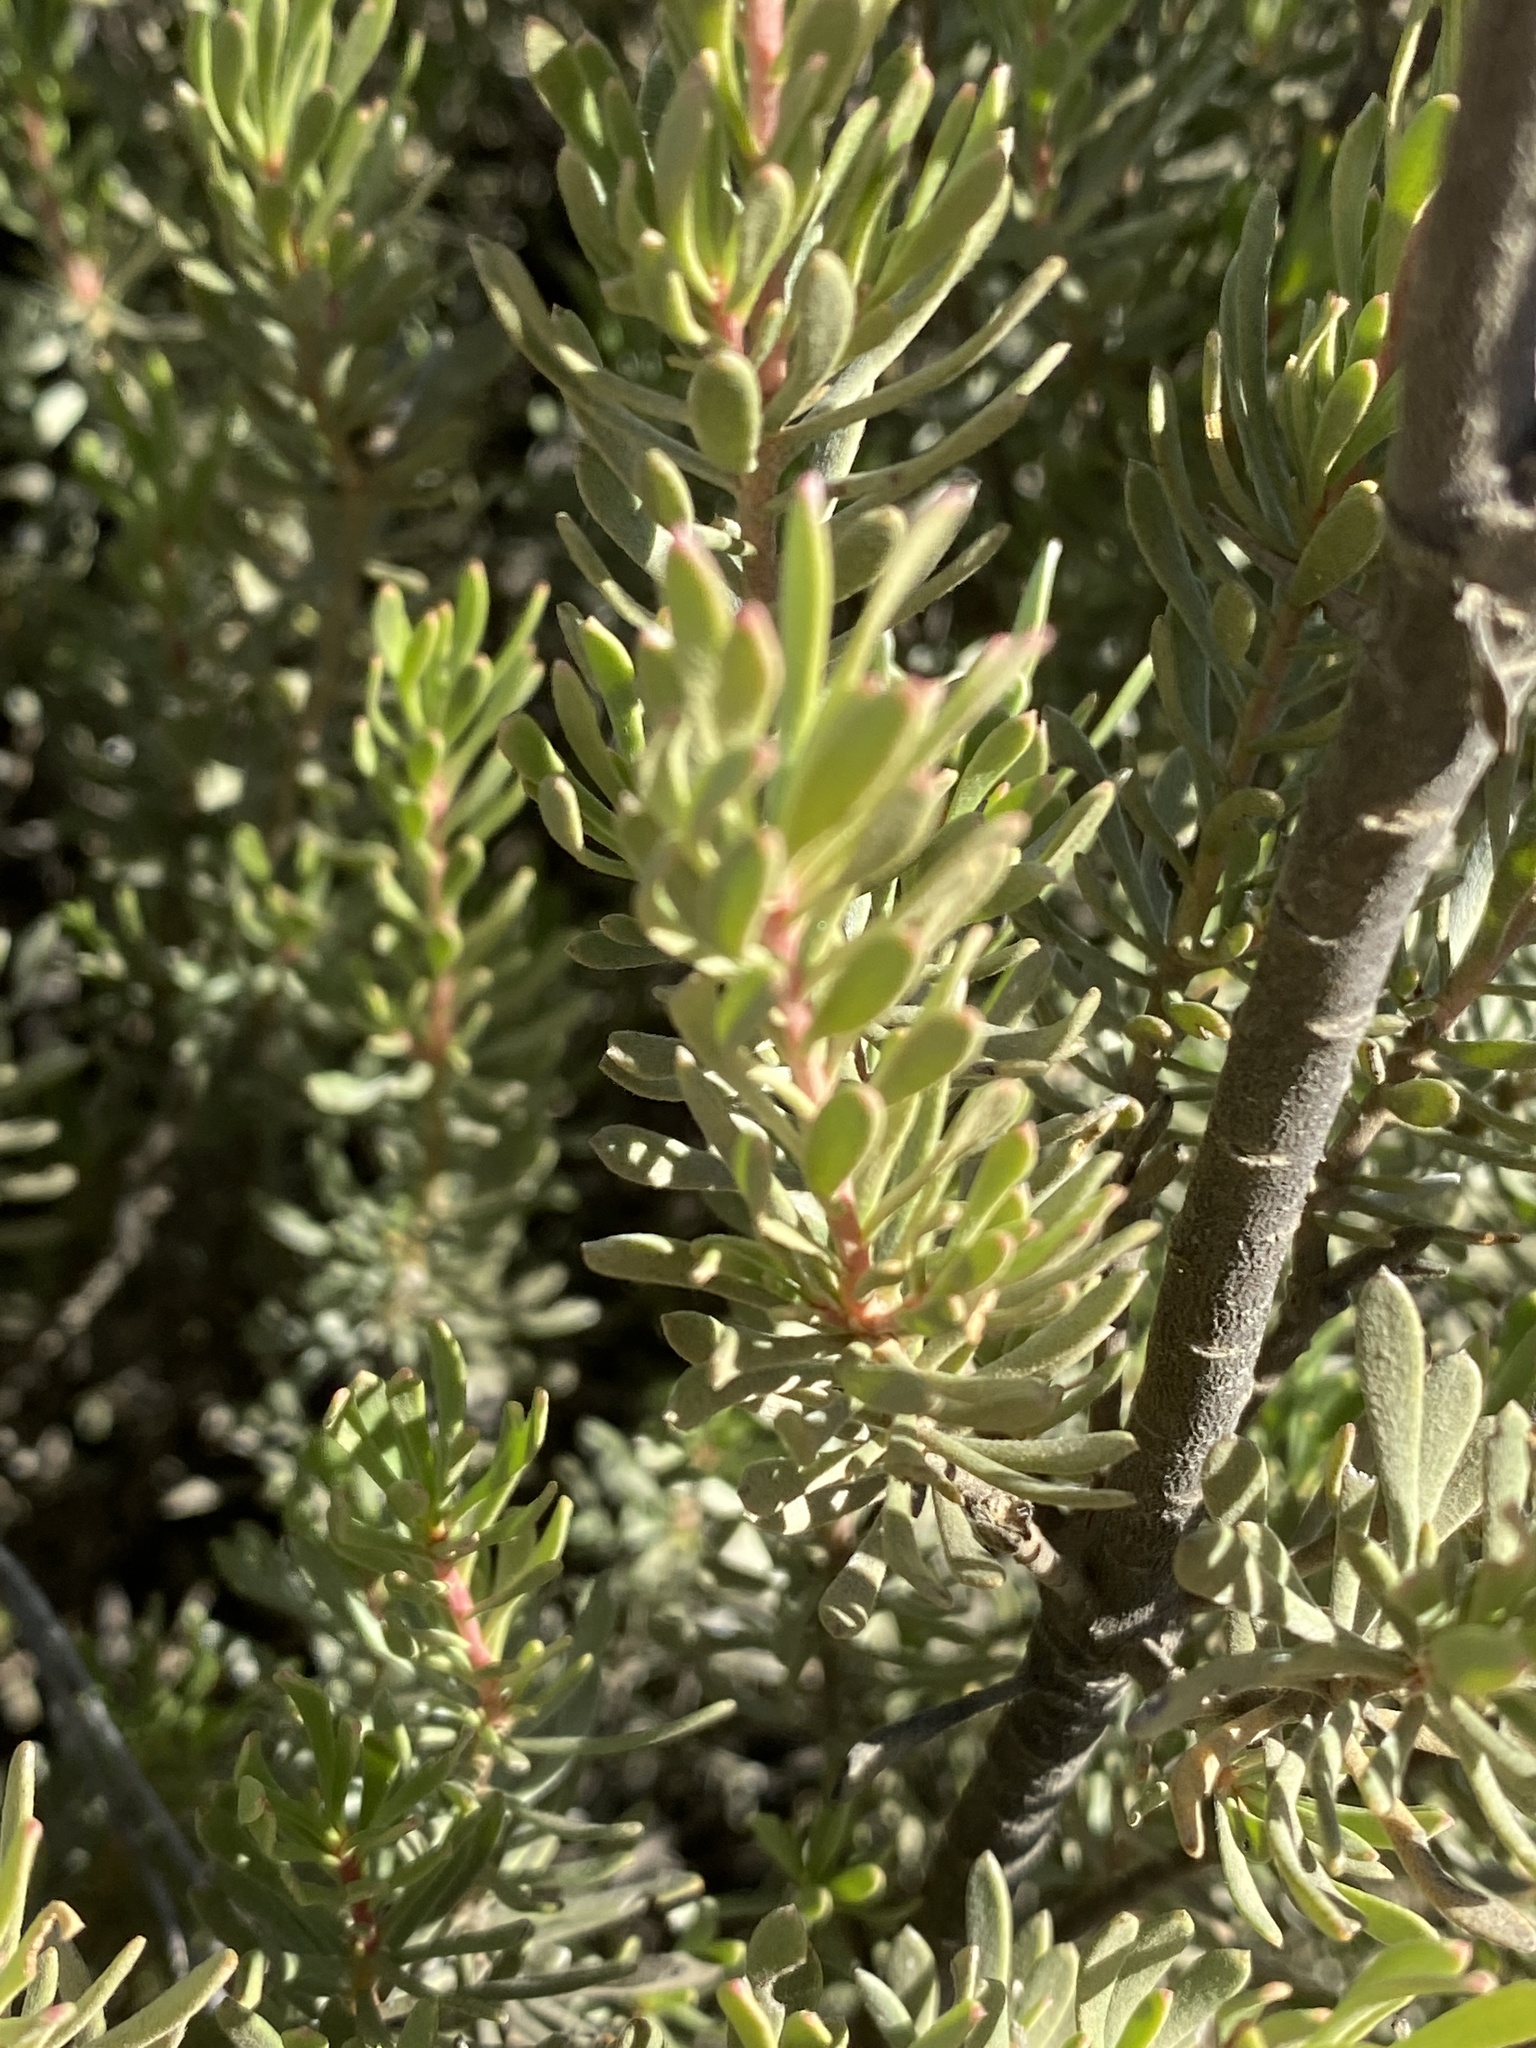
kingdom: Plantae
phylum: Tracheophyta
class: Magnoliopsida
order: Proteales
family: Proteaceae
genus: Leucadendron
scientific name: Leucadendron brunioides
